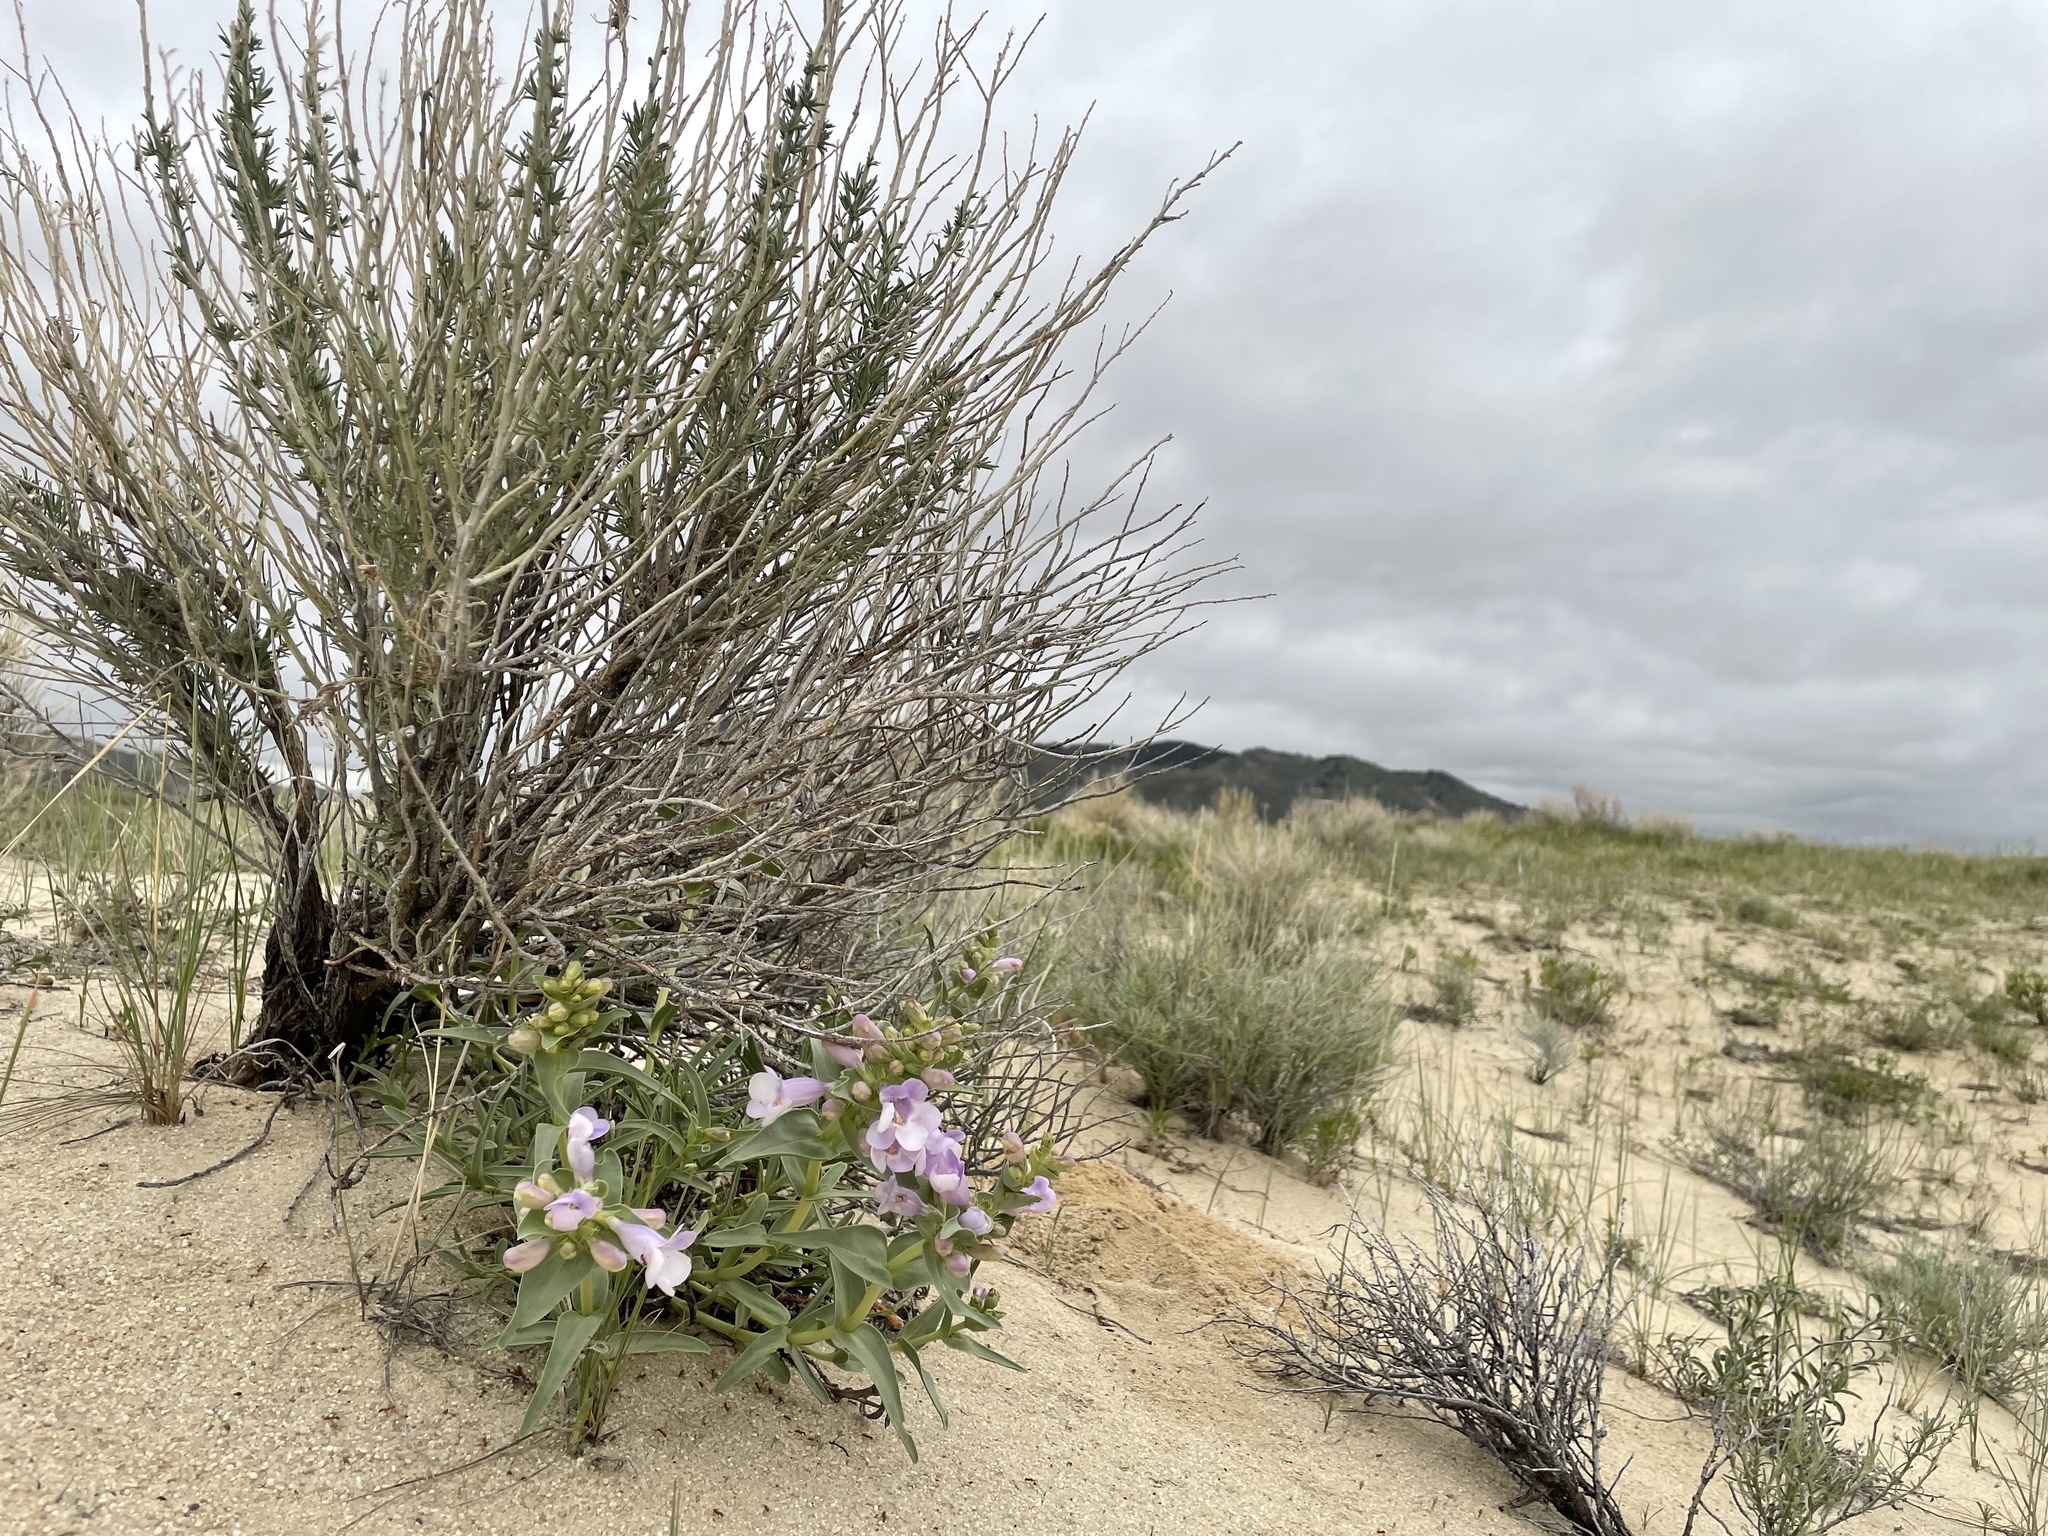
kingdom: Plantae
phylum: Tracheophyta
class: Magnoliopsida
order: Lamiales
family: Plantaginaceae
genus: Penstemon
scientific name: Penstemon haydenii
